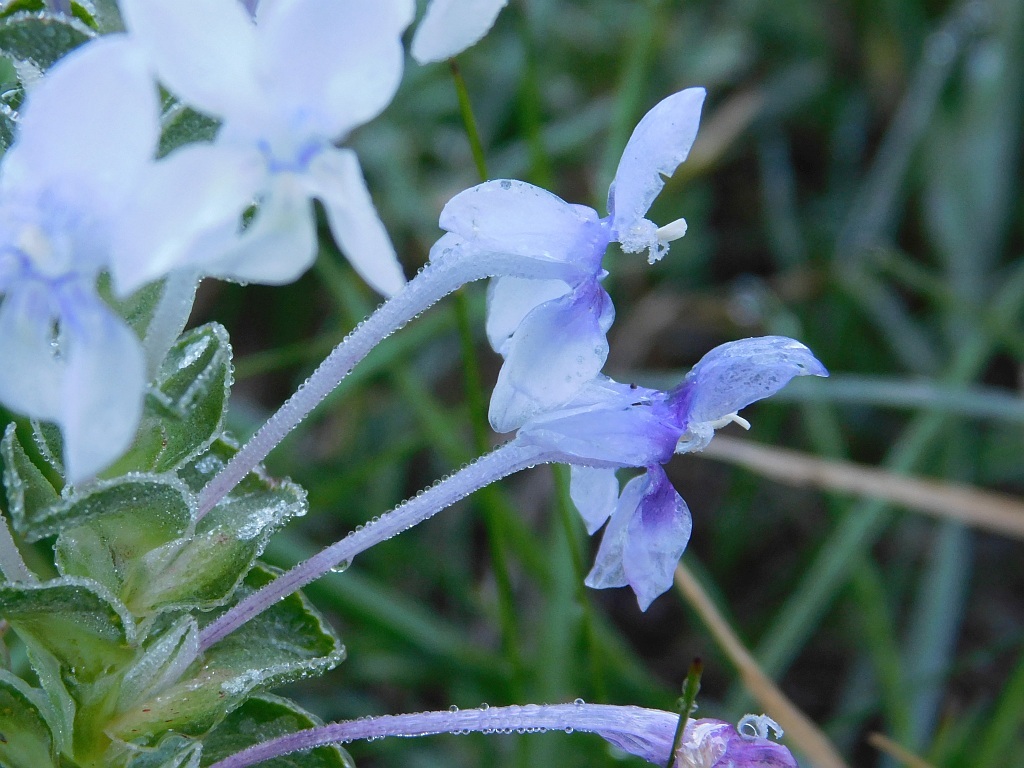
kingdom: Plantae
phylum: Tracheophyta
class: Liliopsida
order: Asparagales
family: Iridaceae
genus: Lapeirousia
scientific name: Lapeirousia pyramidalis
